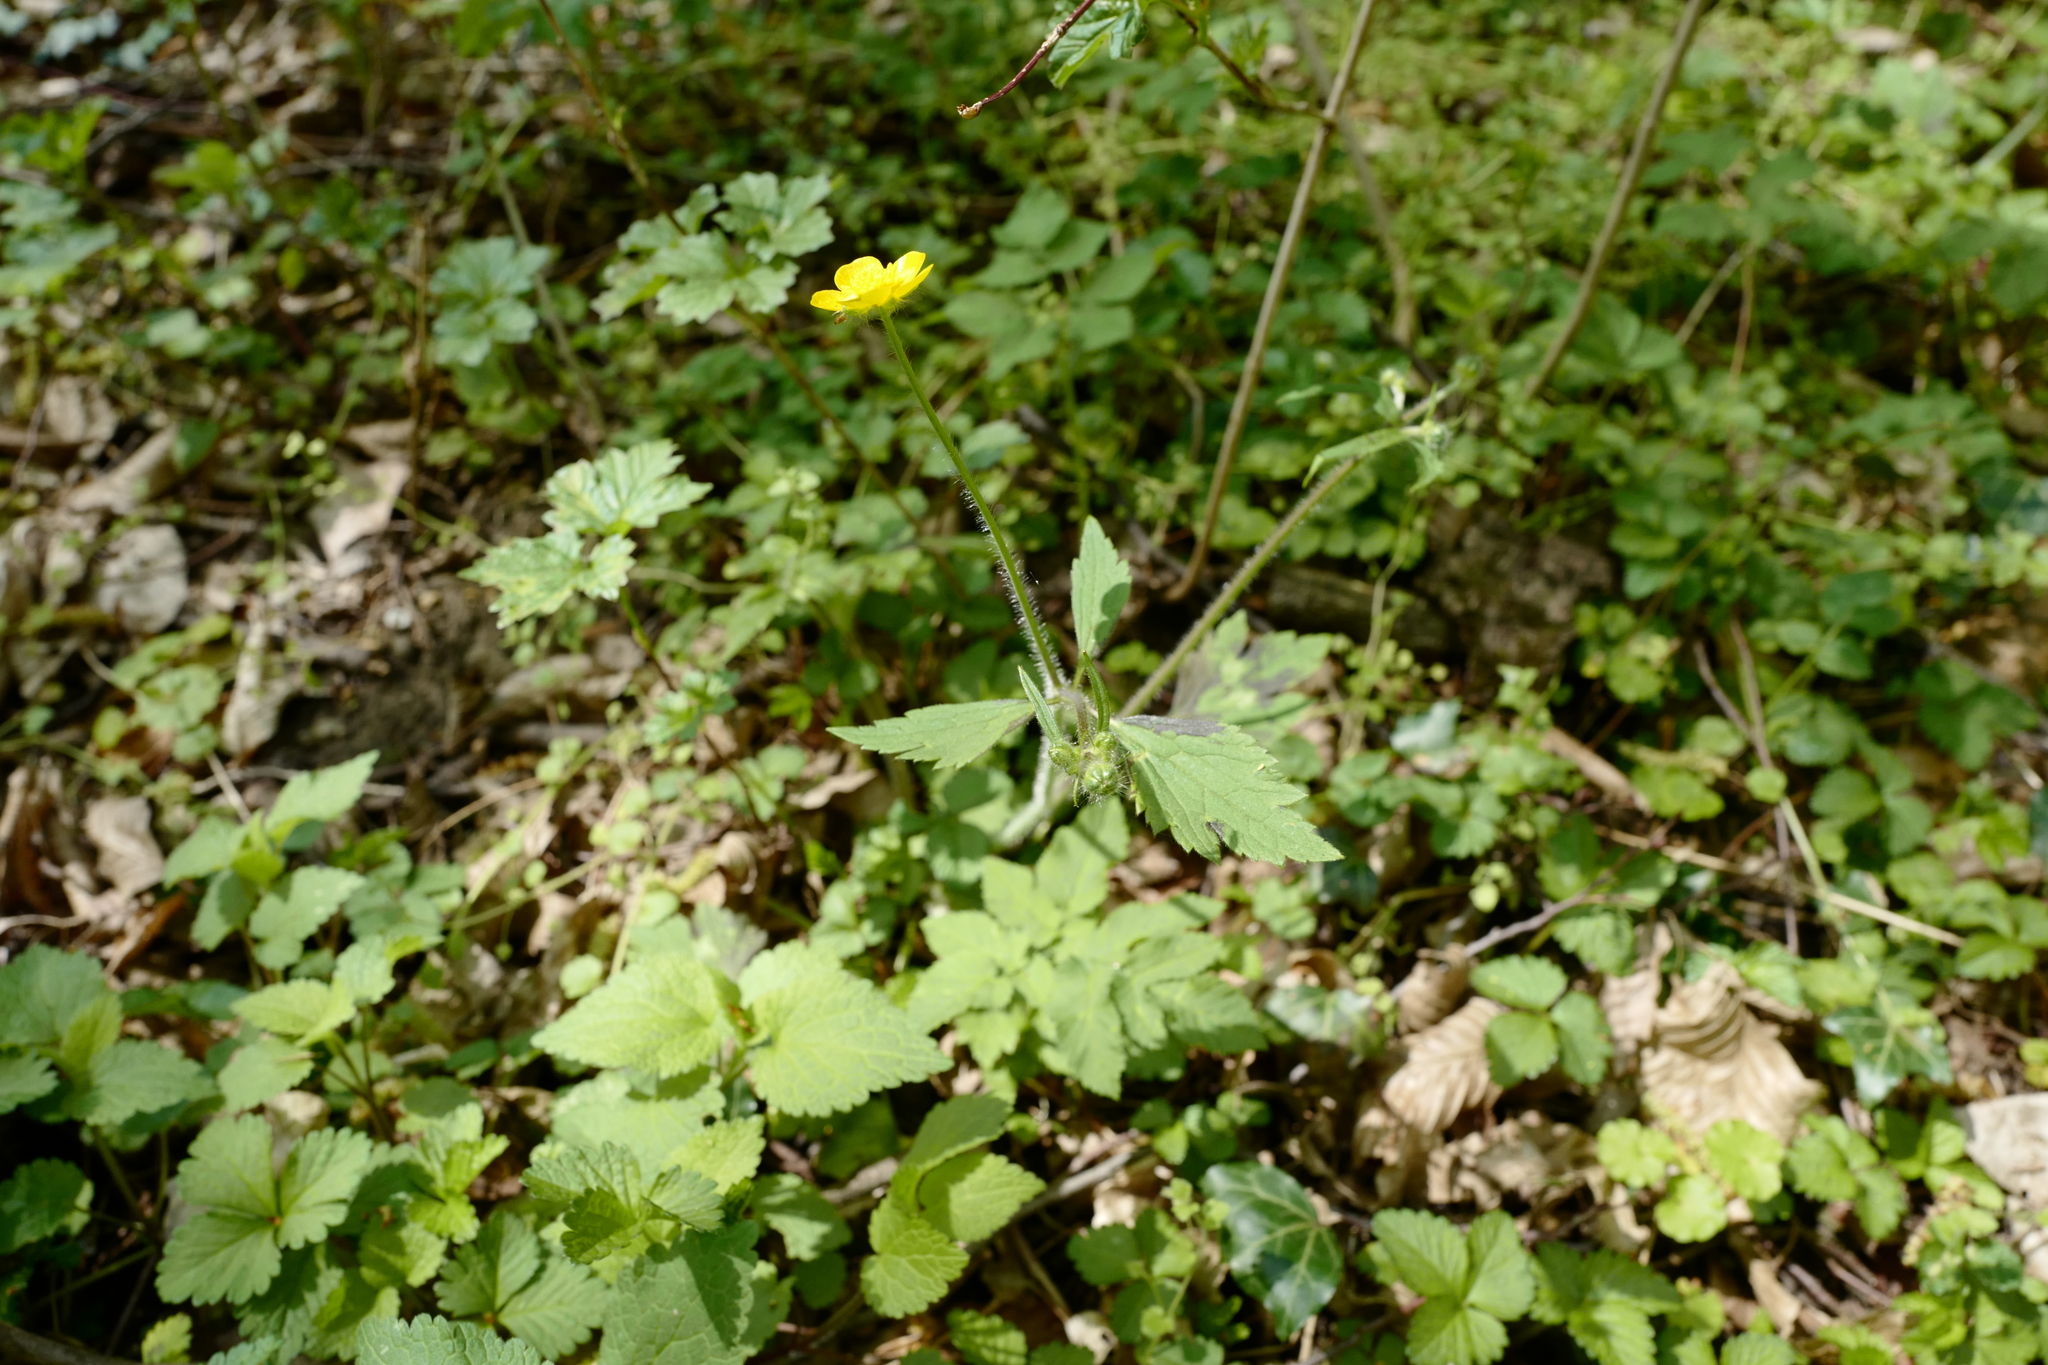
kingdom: Plantae
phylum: Tracheophyta
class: Magnoliopsida
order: Ranunculales
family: Ranunculaceae
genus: Ranunculus
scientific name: Ranunculus lanuginosus
